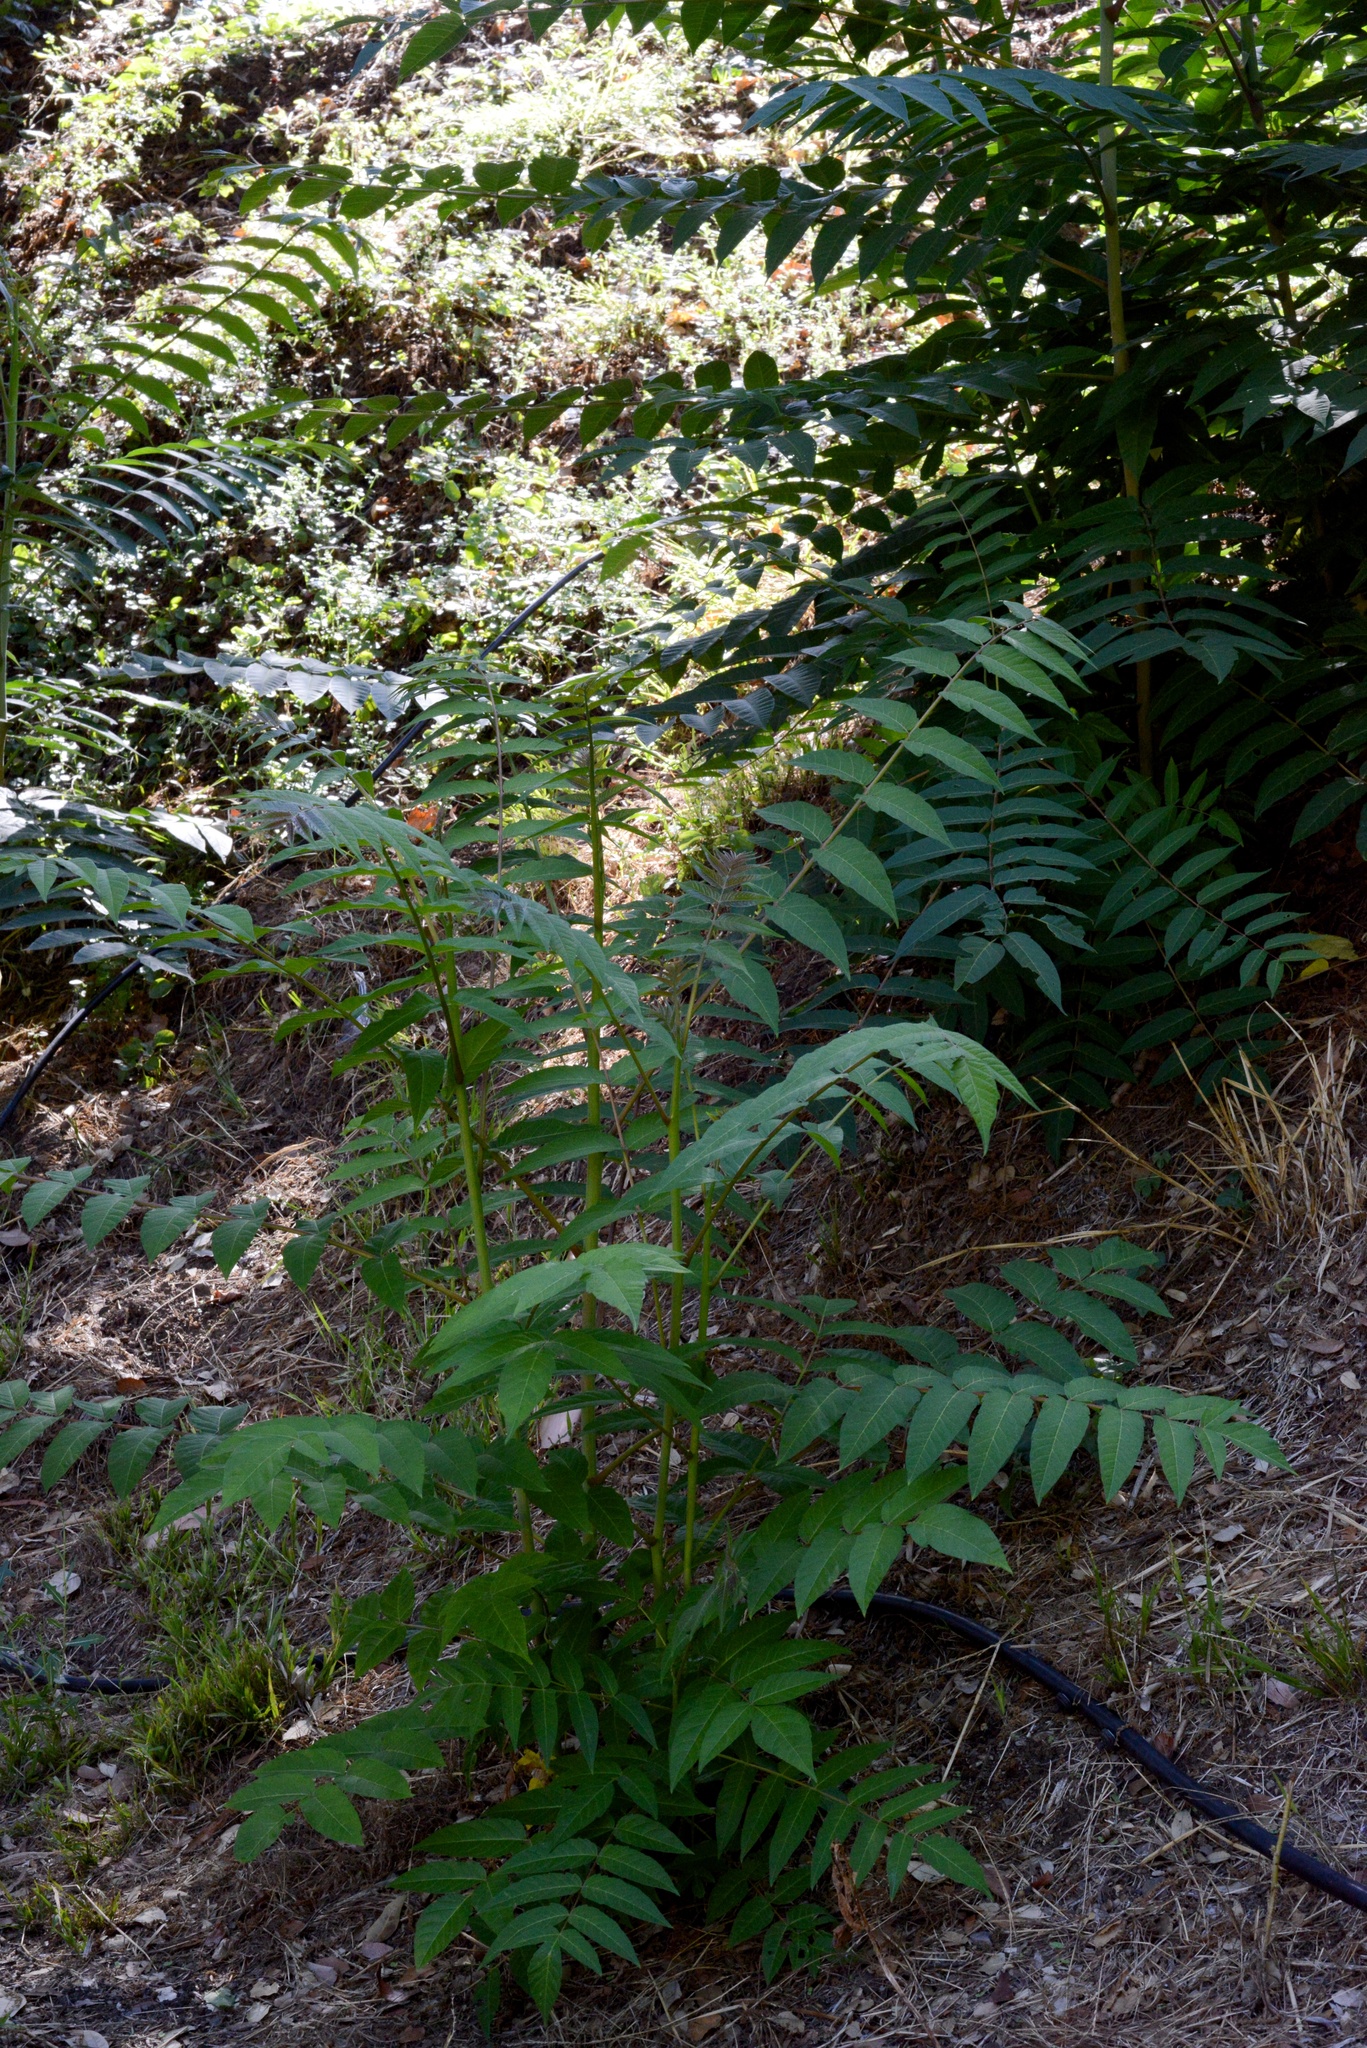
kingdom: Plantae
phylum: Tracheophyta
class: Magnoliopsida
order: Sapindales
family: Simaroubaceae
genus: Ailanthus
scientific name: Ailanthus altissima
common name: Tree-of-heaven
